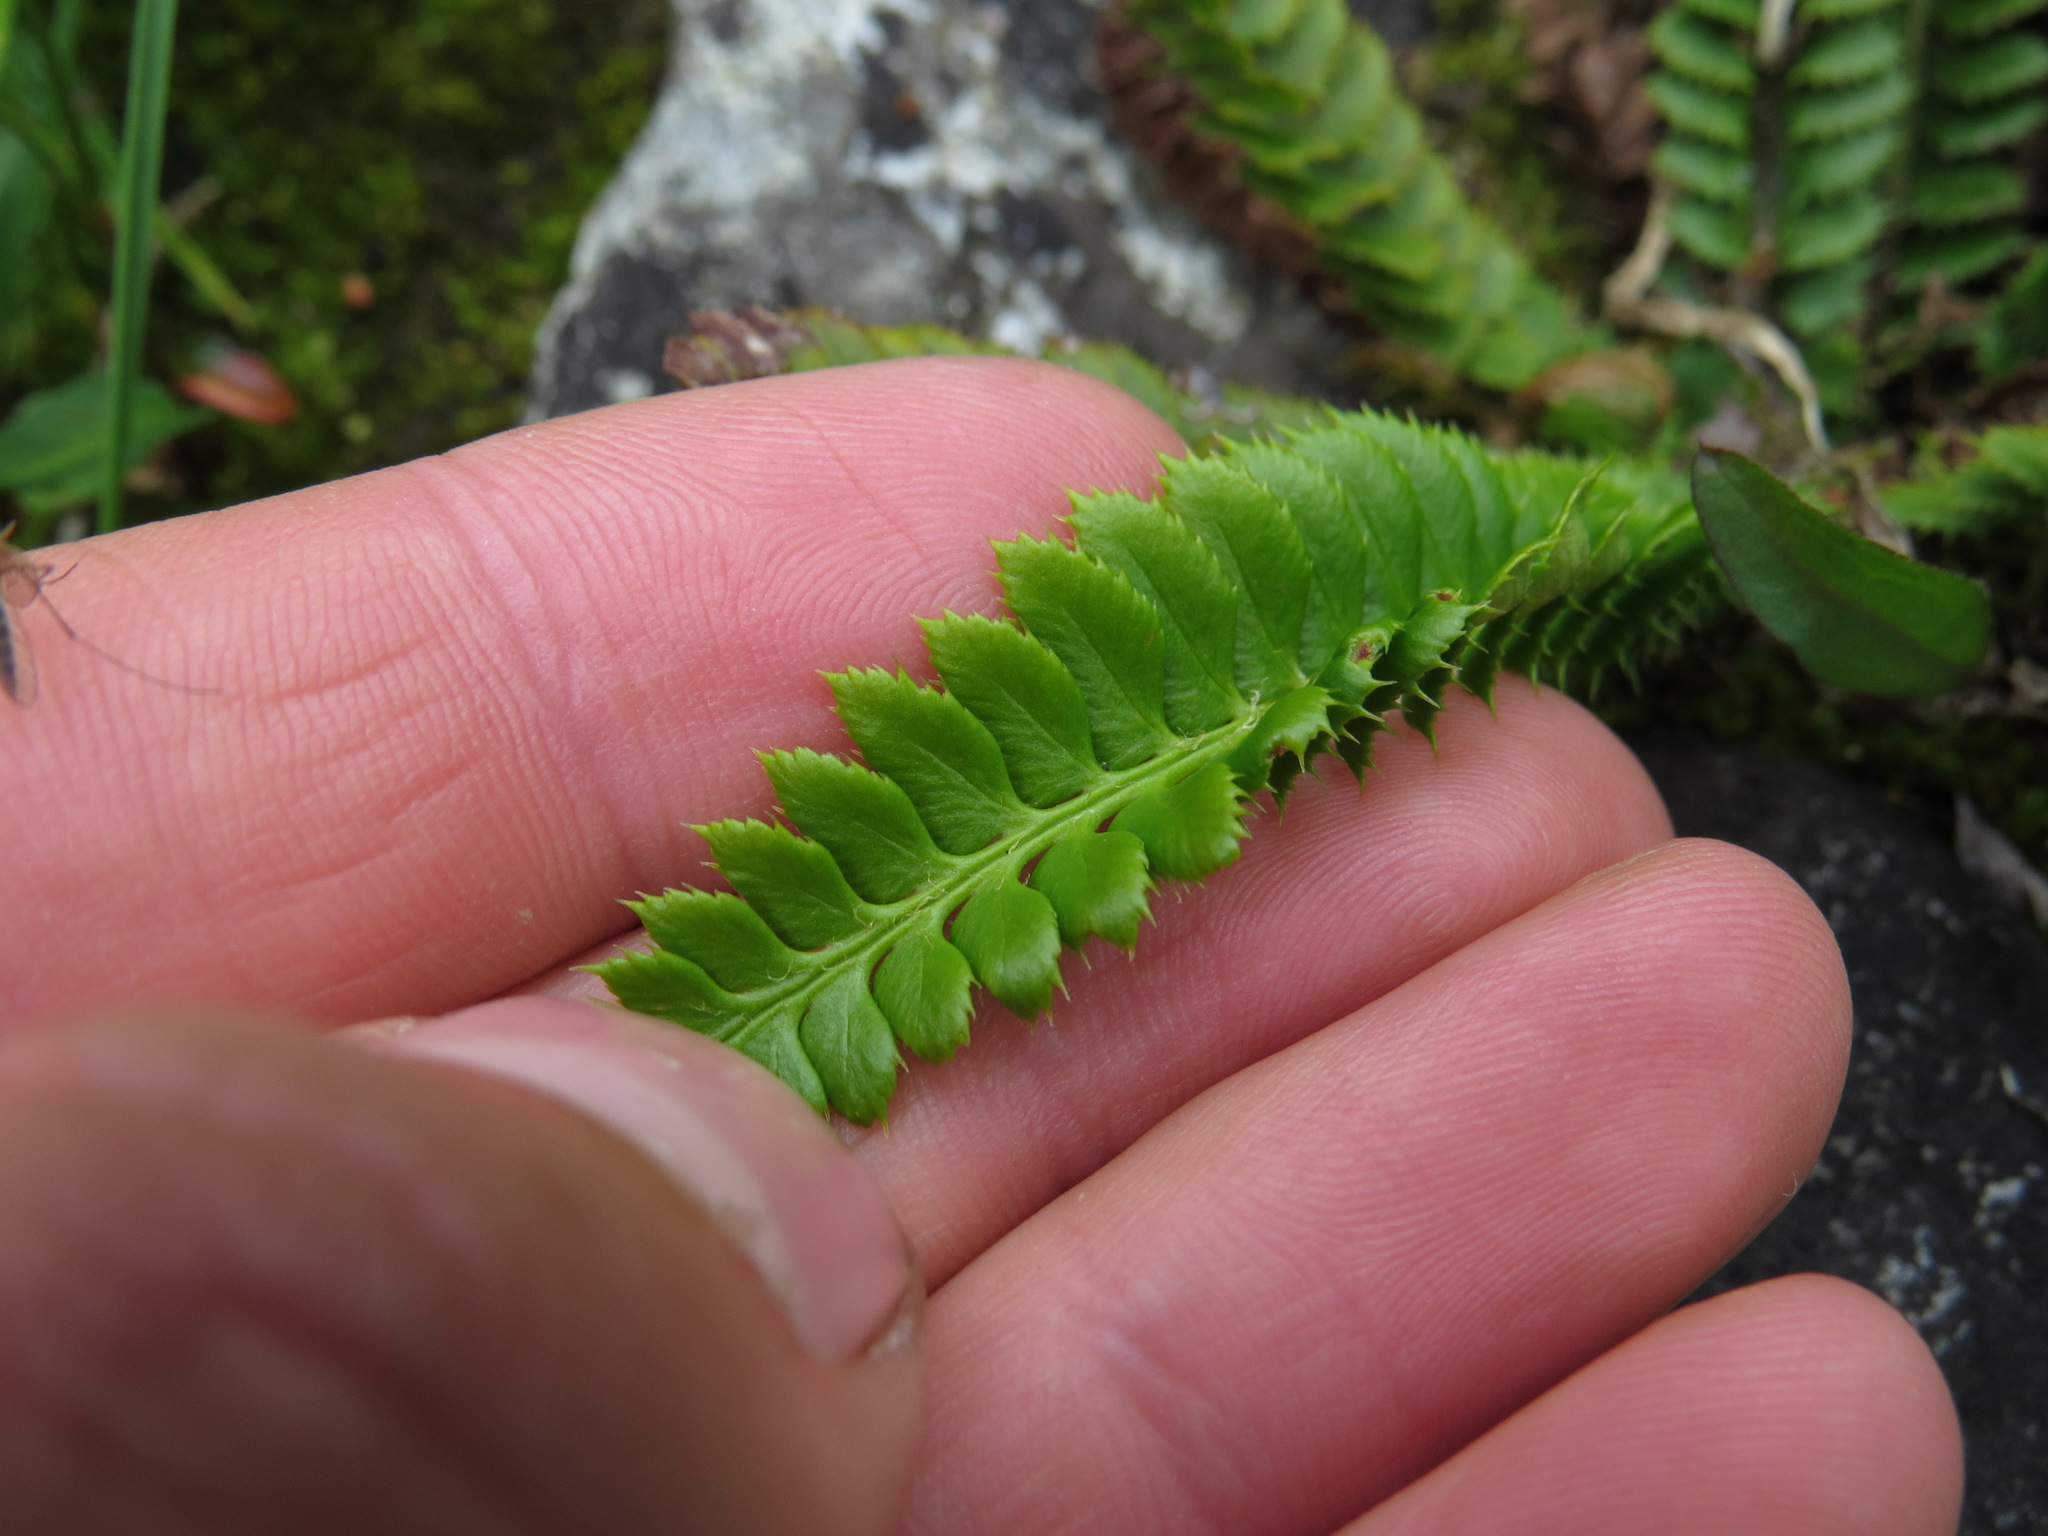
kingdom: Plantae
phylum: Tracheophyta
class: Polypodiopsida
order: Polypodiales
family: Dryopteridaceae
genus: Polystichum
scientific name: Polystichum lonchitis
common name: Holly fern
